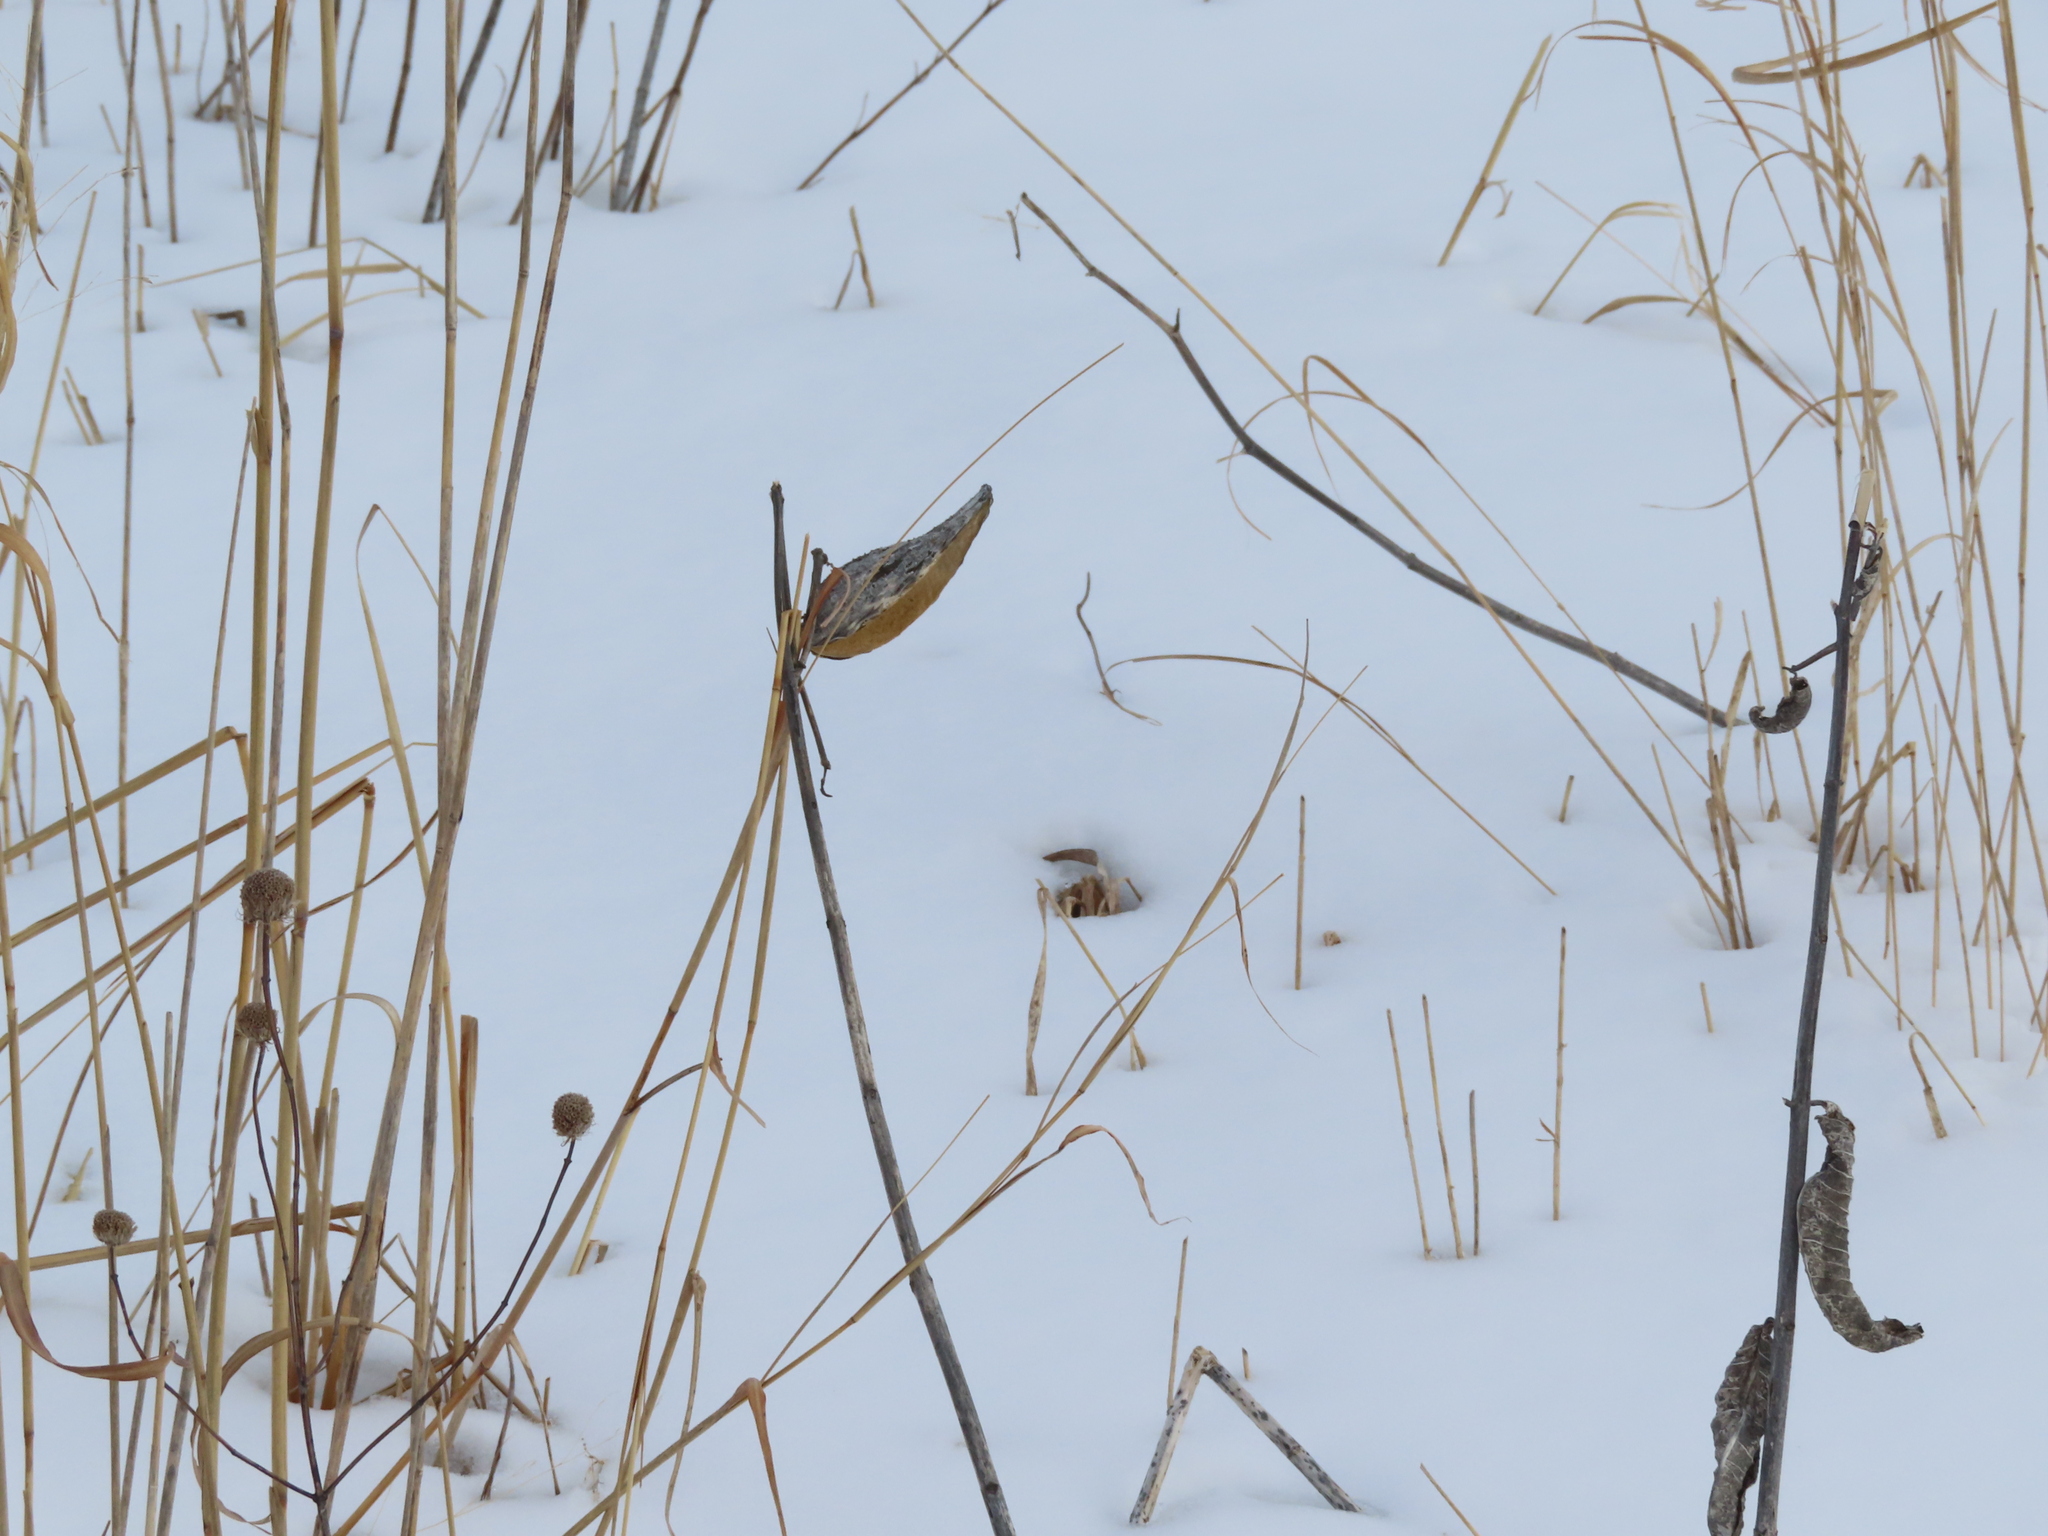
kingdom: Plantae
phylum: Tracheophyta
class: Magnoliopsida
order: Gentianales
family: Apocynaceae
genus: Asclepias
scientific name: Asclepias syriaca
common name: Common milkweed
